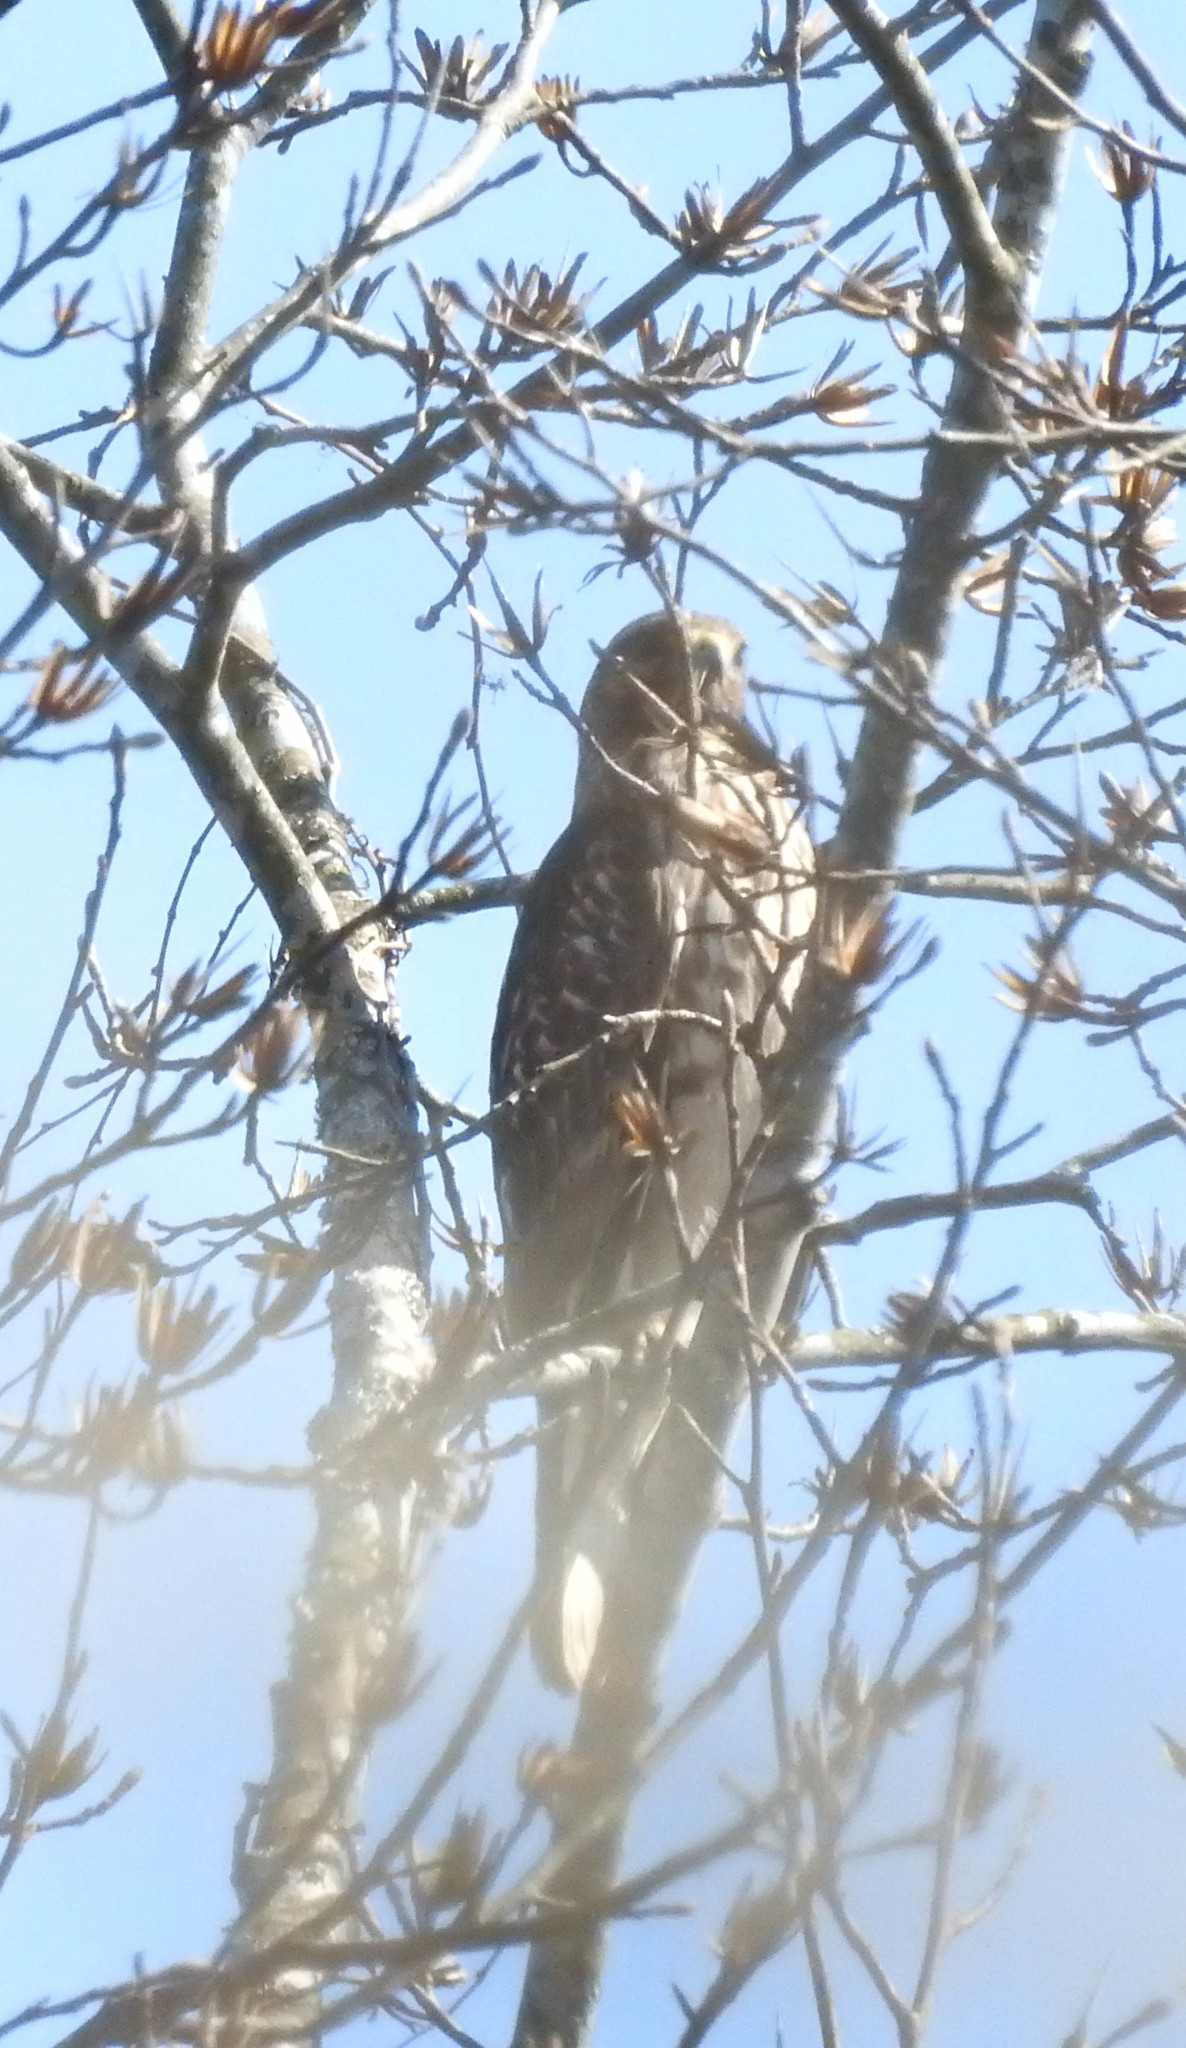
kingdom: Animalia
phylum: Chordata
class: Aves
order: Accipitriformes
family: Accipitridae
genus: Buteo
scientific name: Buteo lineatus
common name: Red-shouldered hawk
